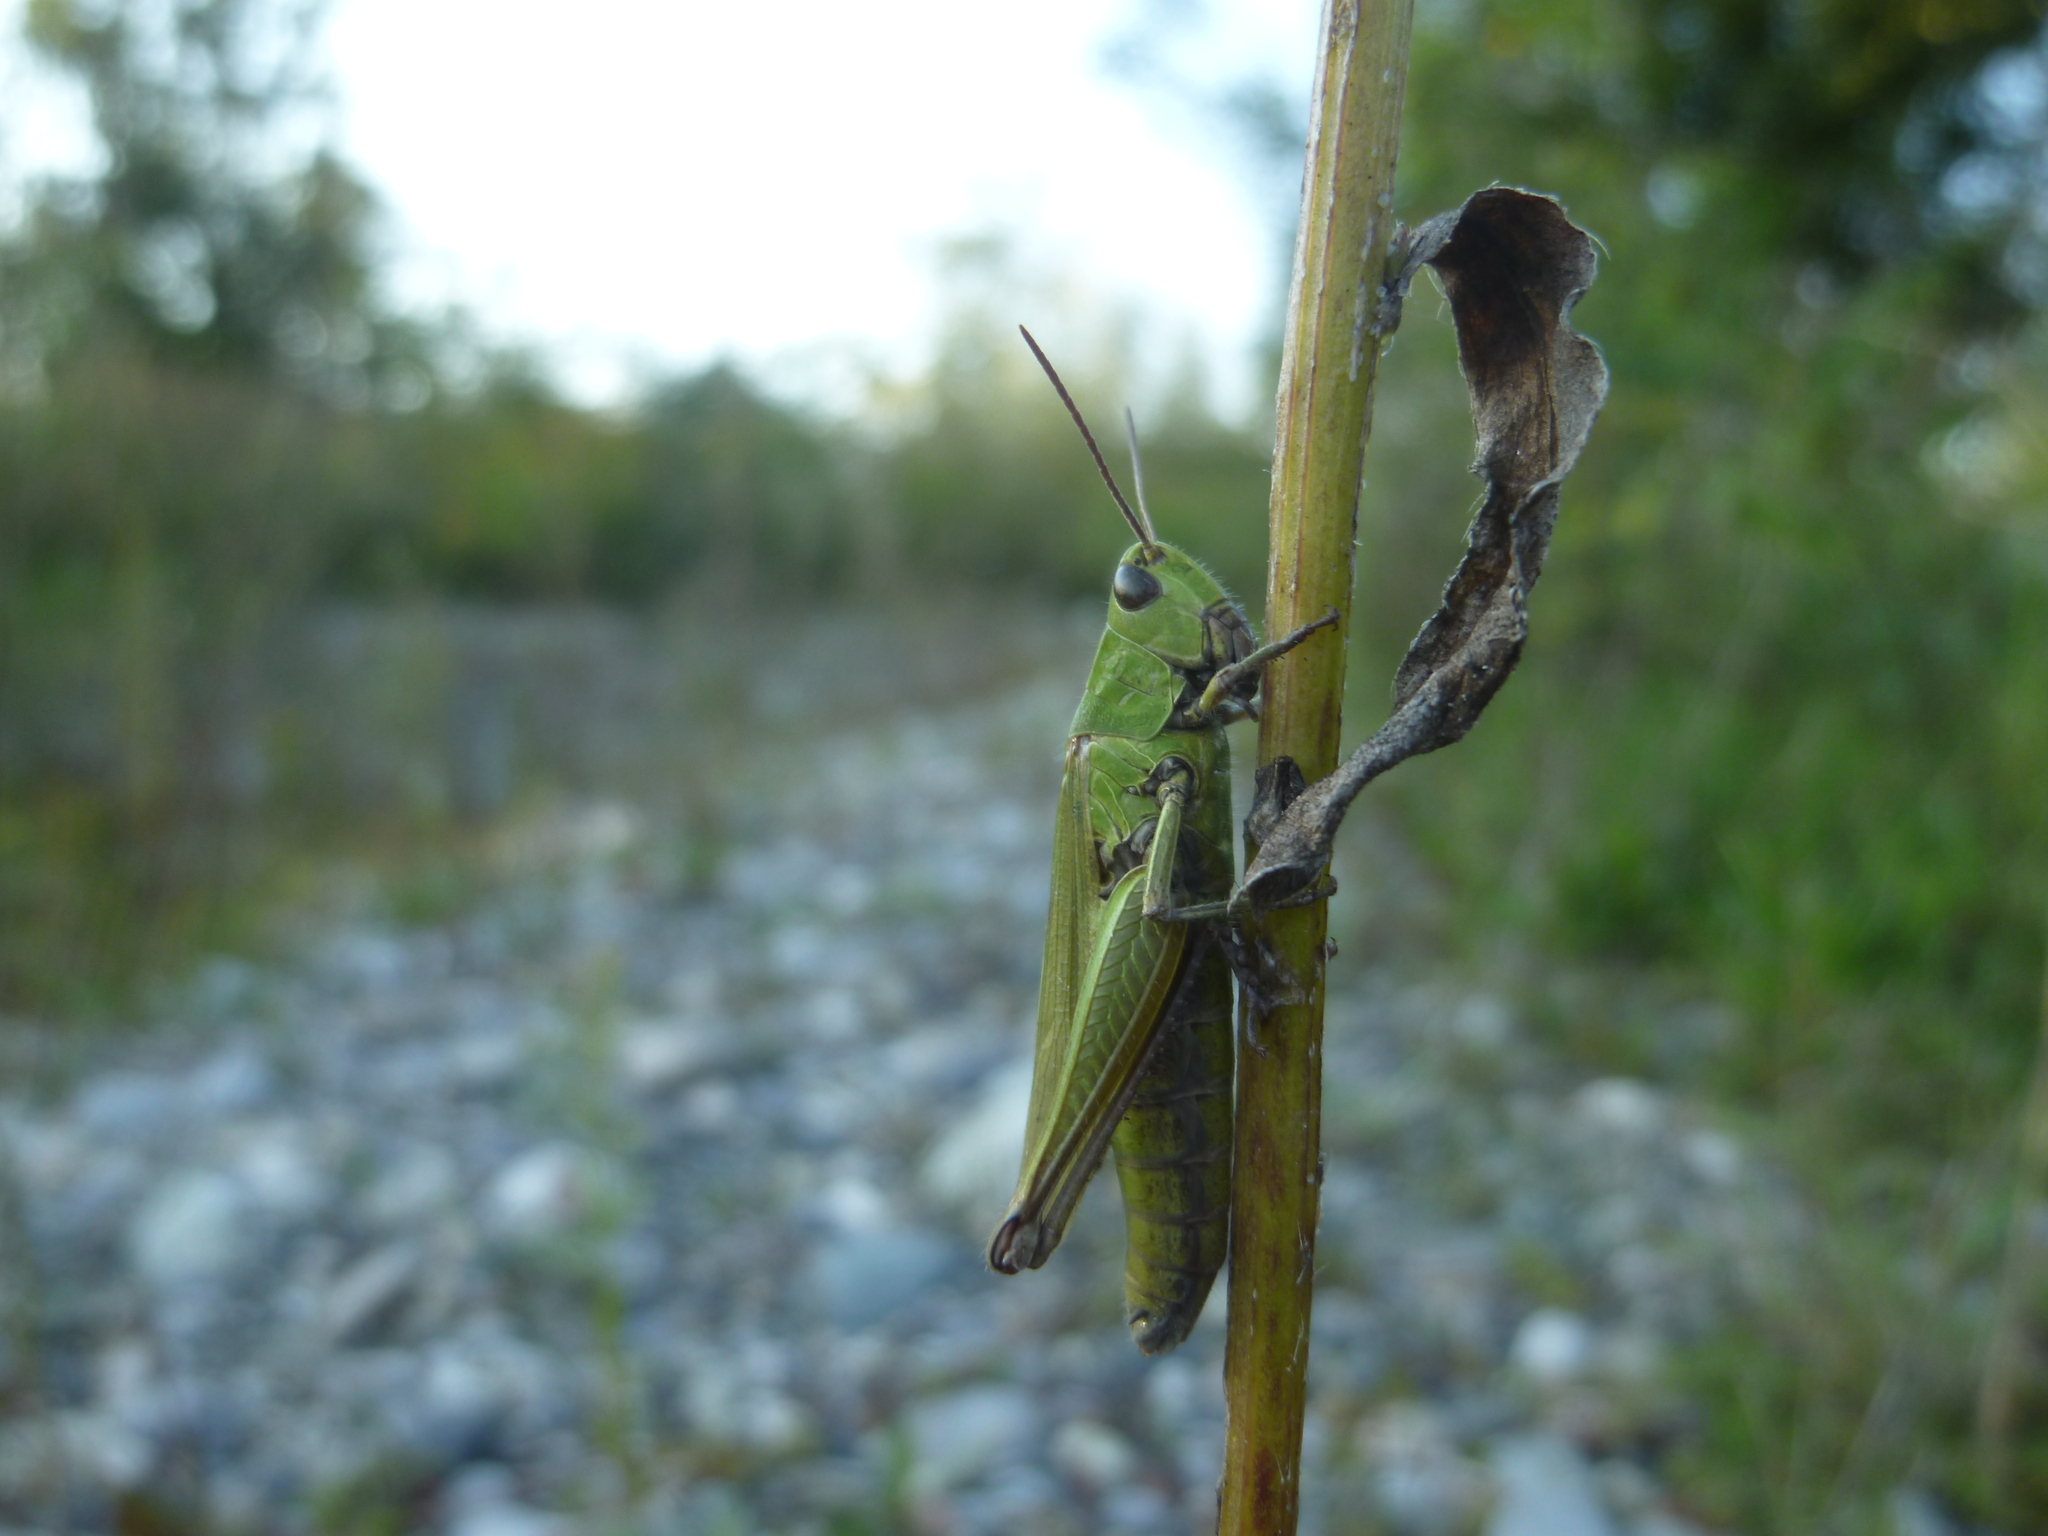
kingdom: Animalia
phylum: Arthropoda
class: Insecta
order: Orthoptera
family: Acrididae
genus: Chorthippus
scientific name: Chorthippus dorsatus
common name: Steppe grasshopper
